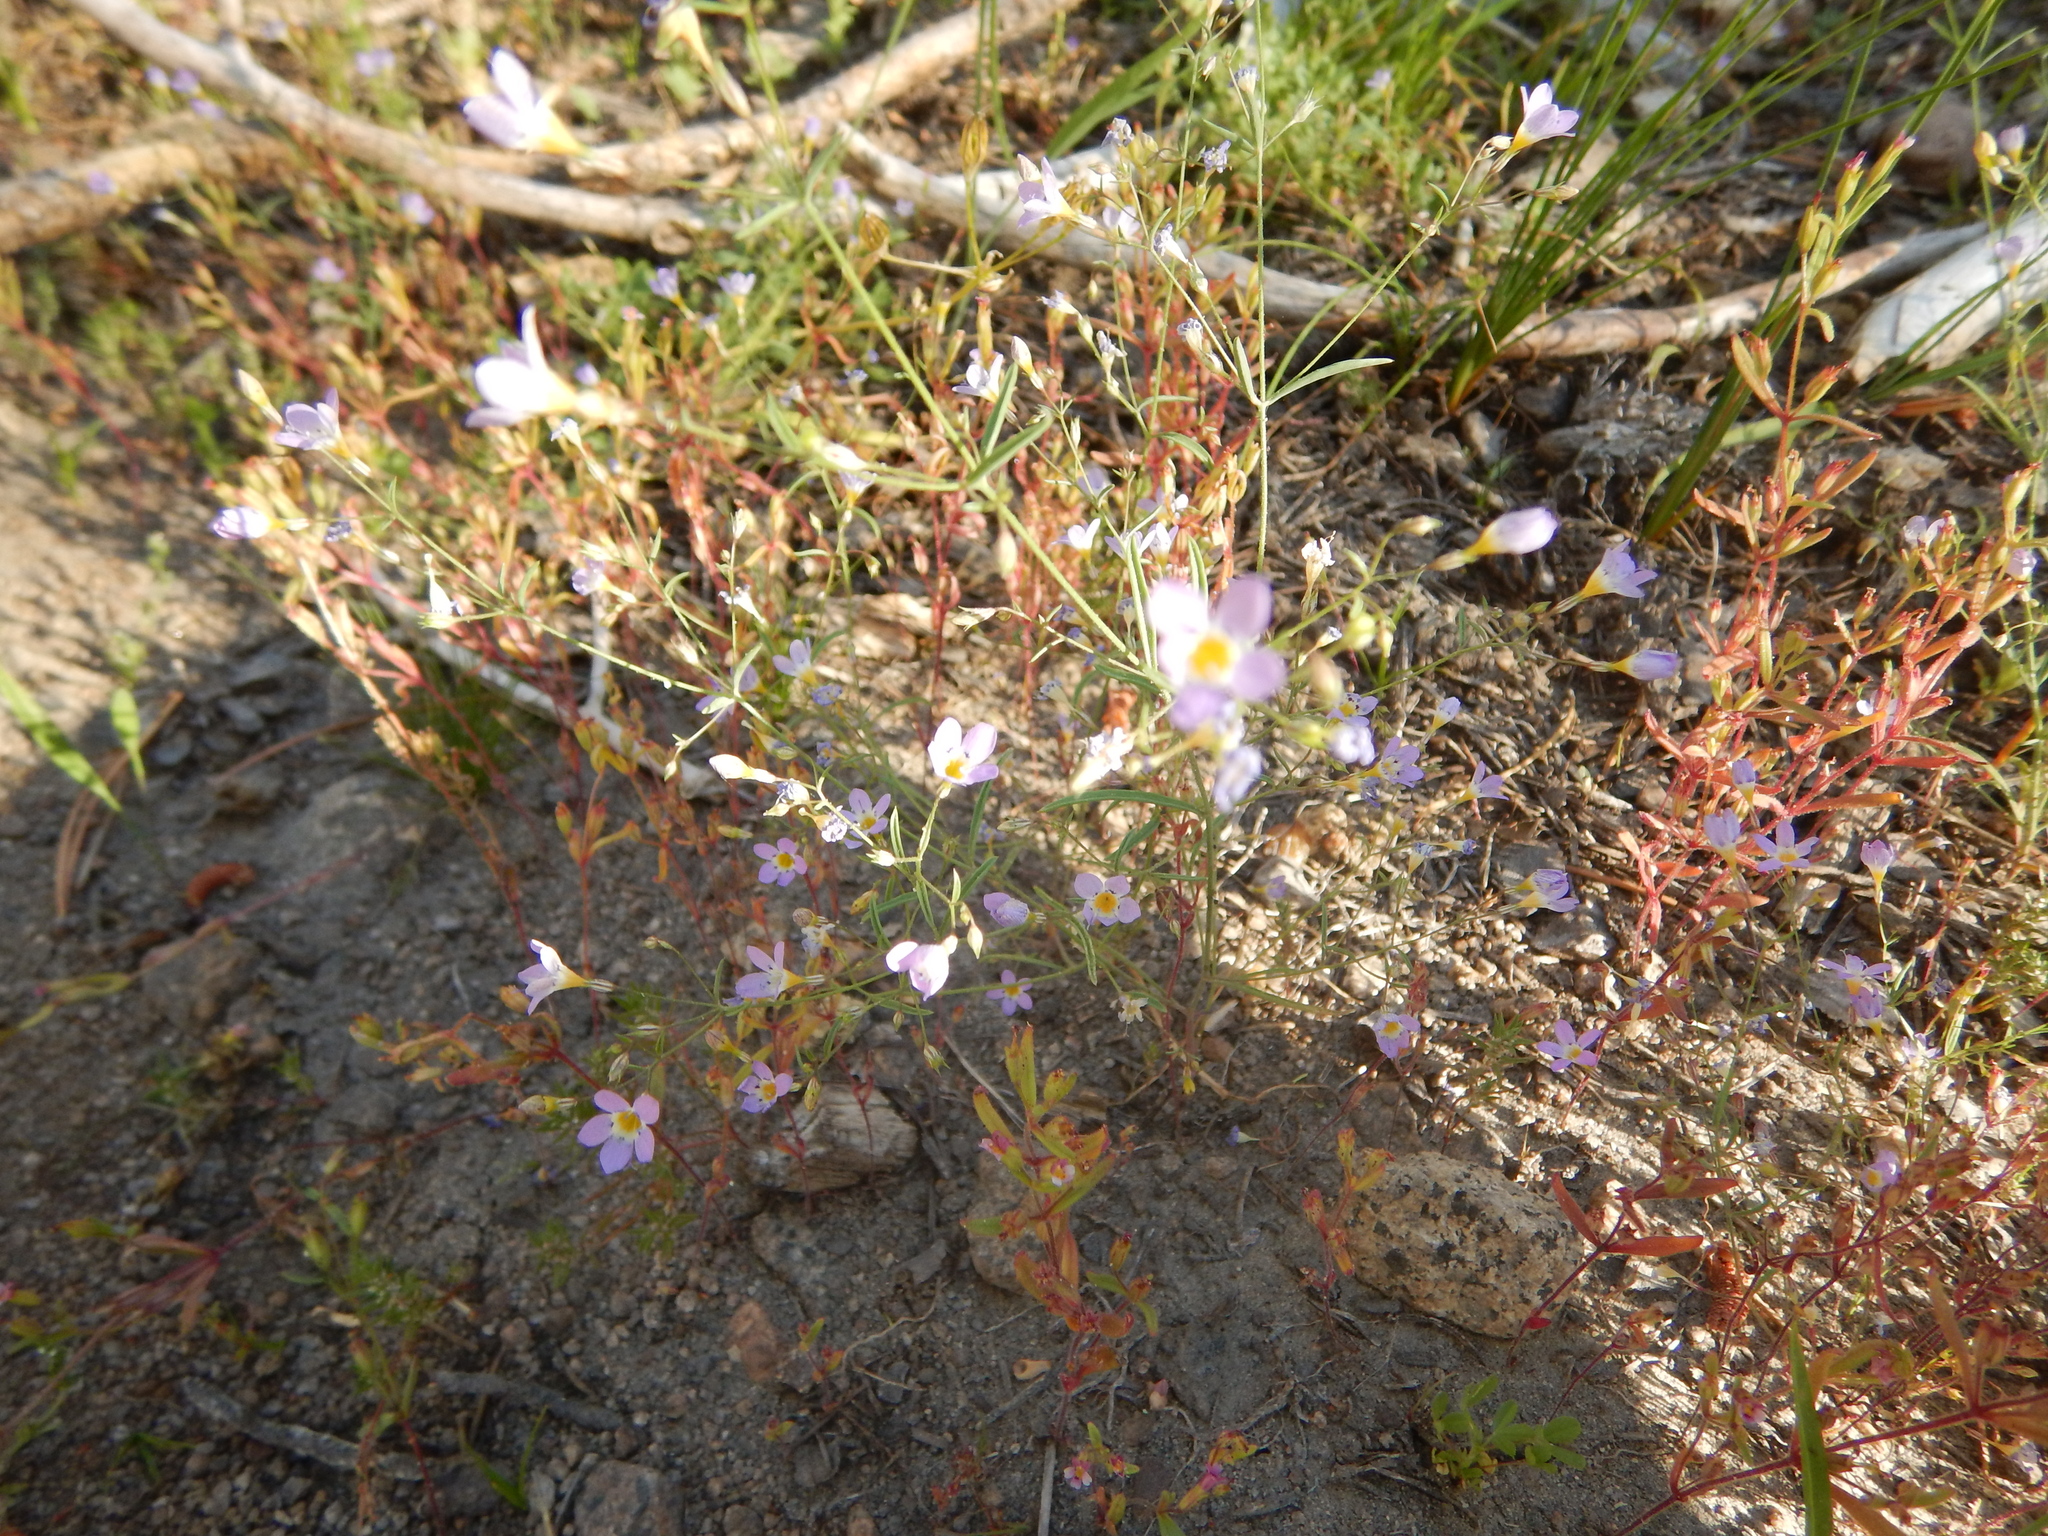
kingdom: Plantae
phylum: Tracheophyta
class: Magnoliopsida
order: Ericales
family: Polemoniaceae
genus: Navarretia
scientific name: Navarretia leptalea
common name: Bridges' pincushionplant
